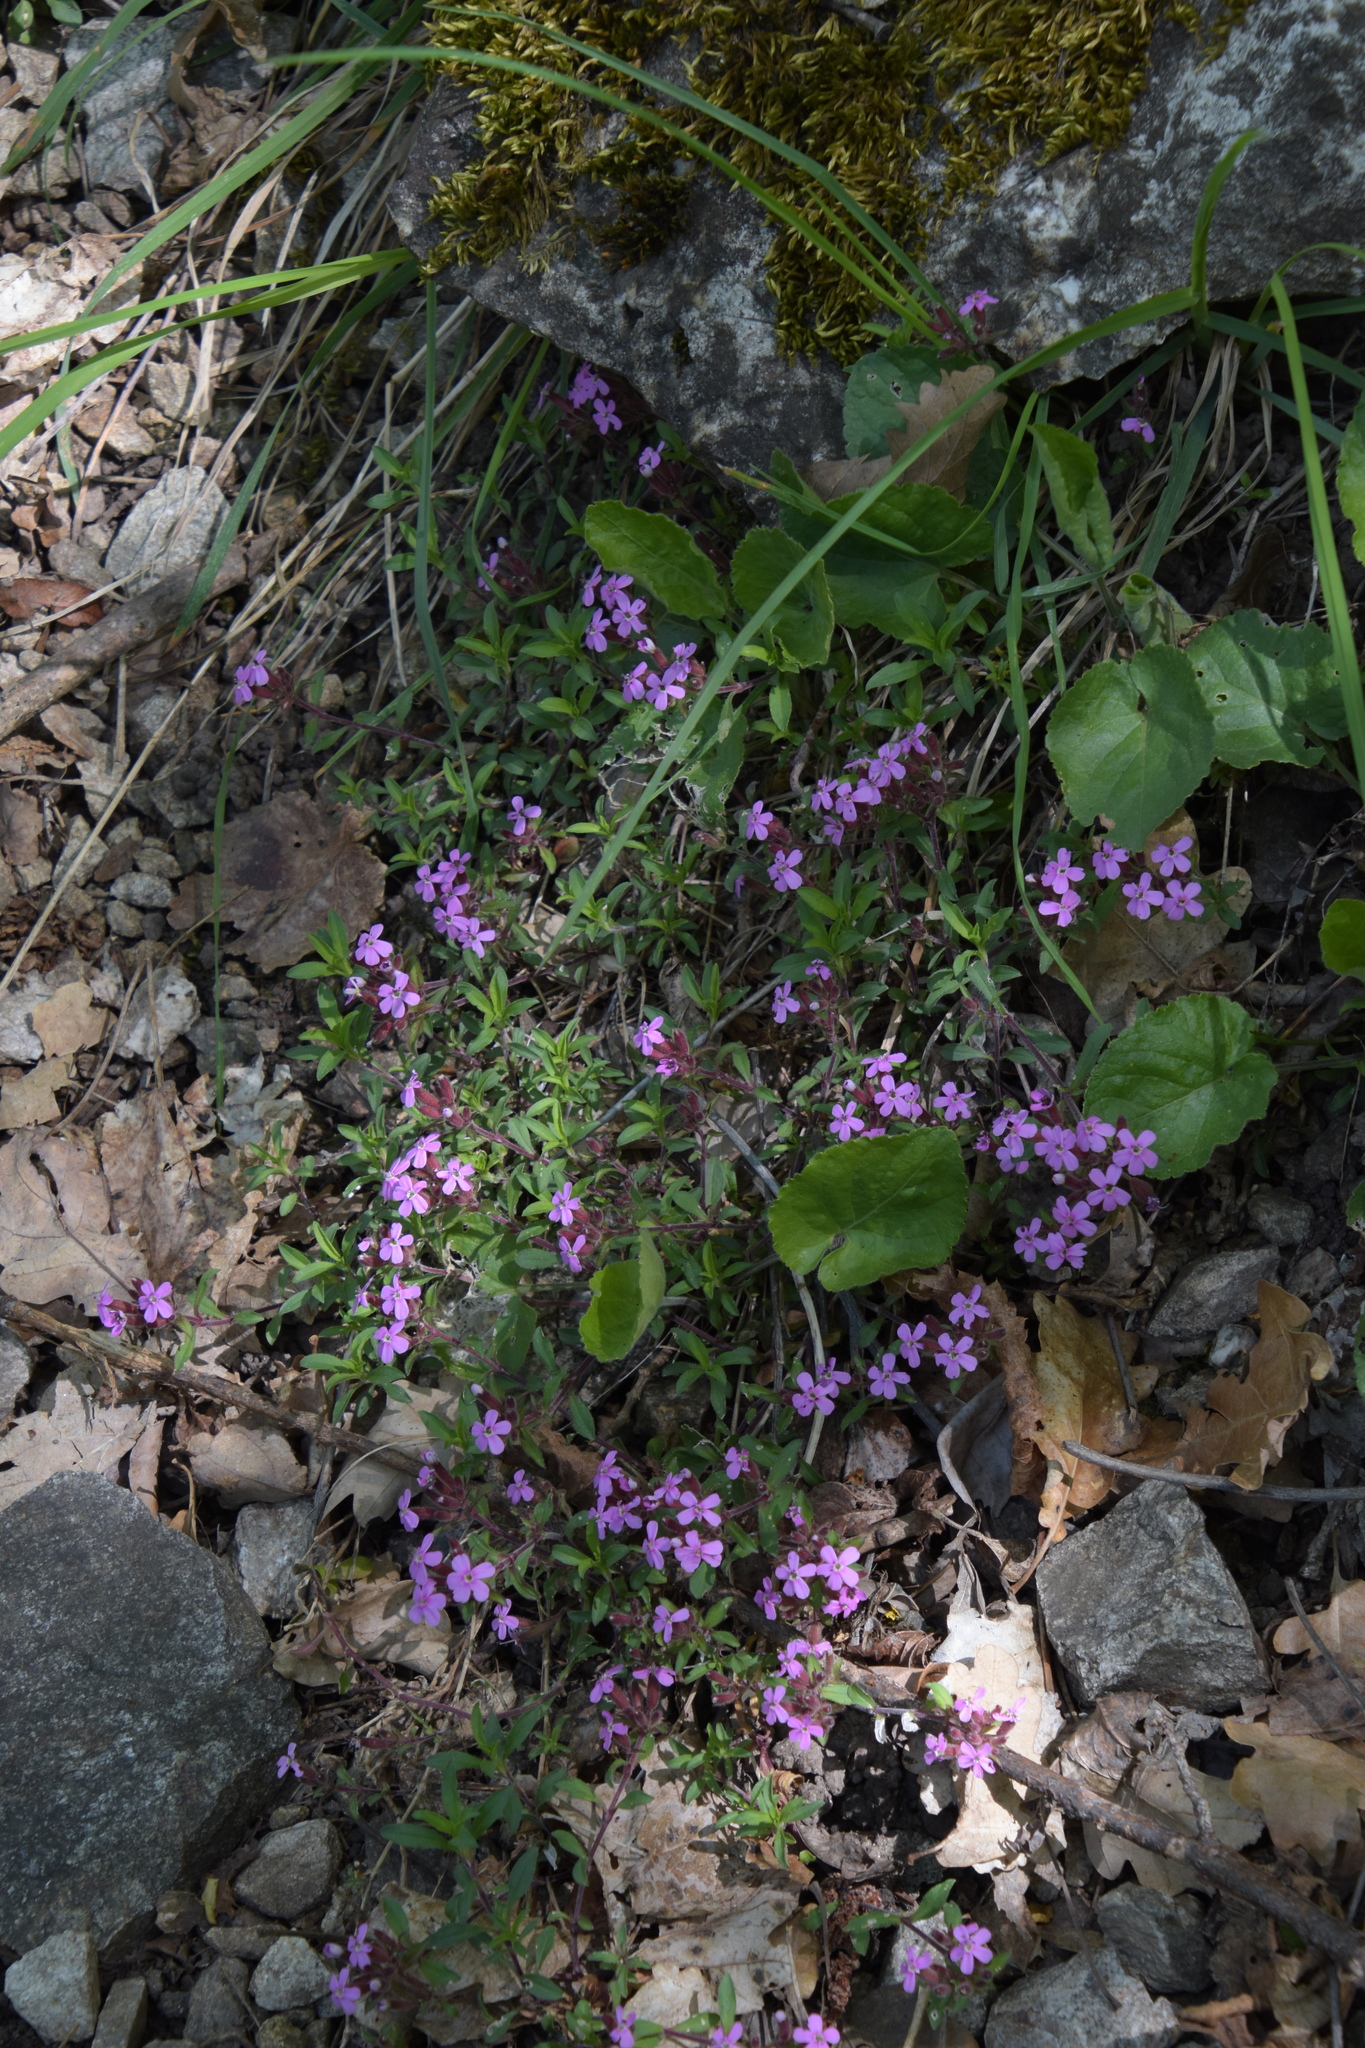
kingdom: Plantae
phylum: Tracheophyta
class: Magnoliopsida
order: Caryophyllales
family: Caryophyllaceae
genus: Saponaria
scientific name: Saponaria ocymoides
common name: Rock soapwort
